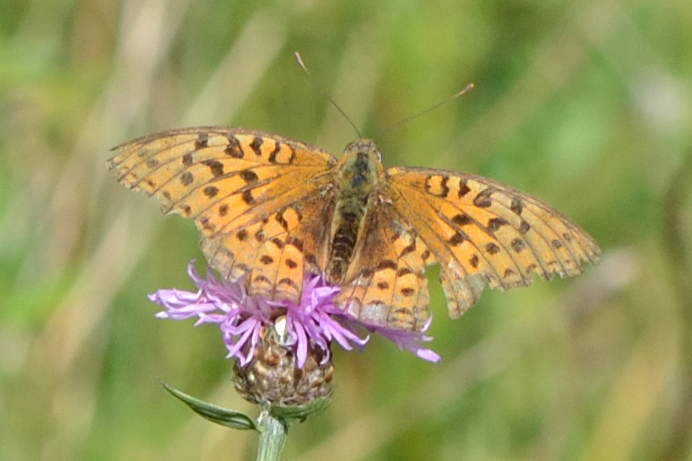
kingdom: Animalia
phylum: Arthropoda
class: Insecta
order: Lepidoptera
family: Nymphalidae
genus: Fabriciana
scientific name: Fabriciana adippe
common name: High brown fritillary
